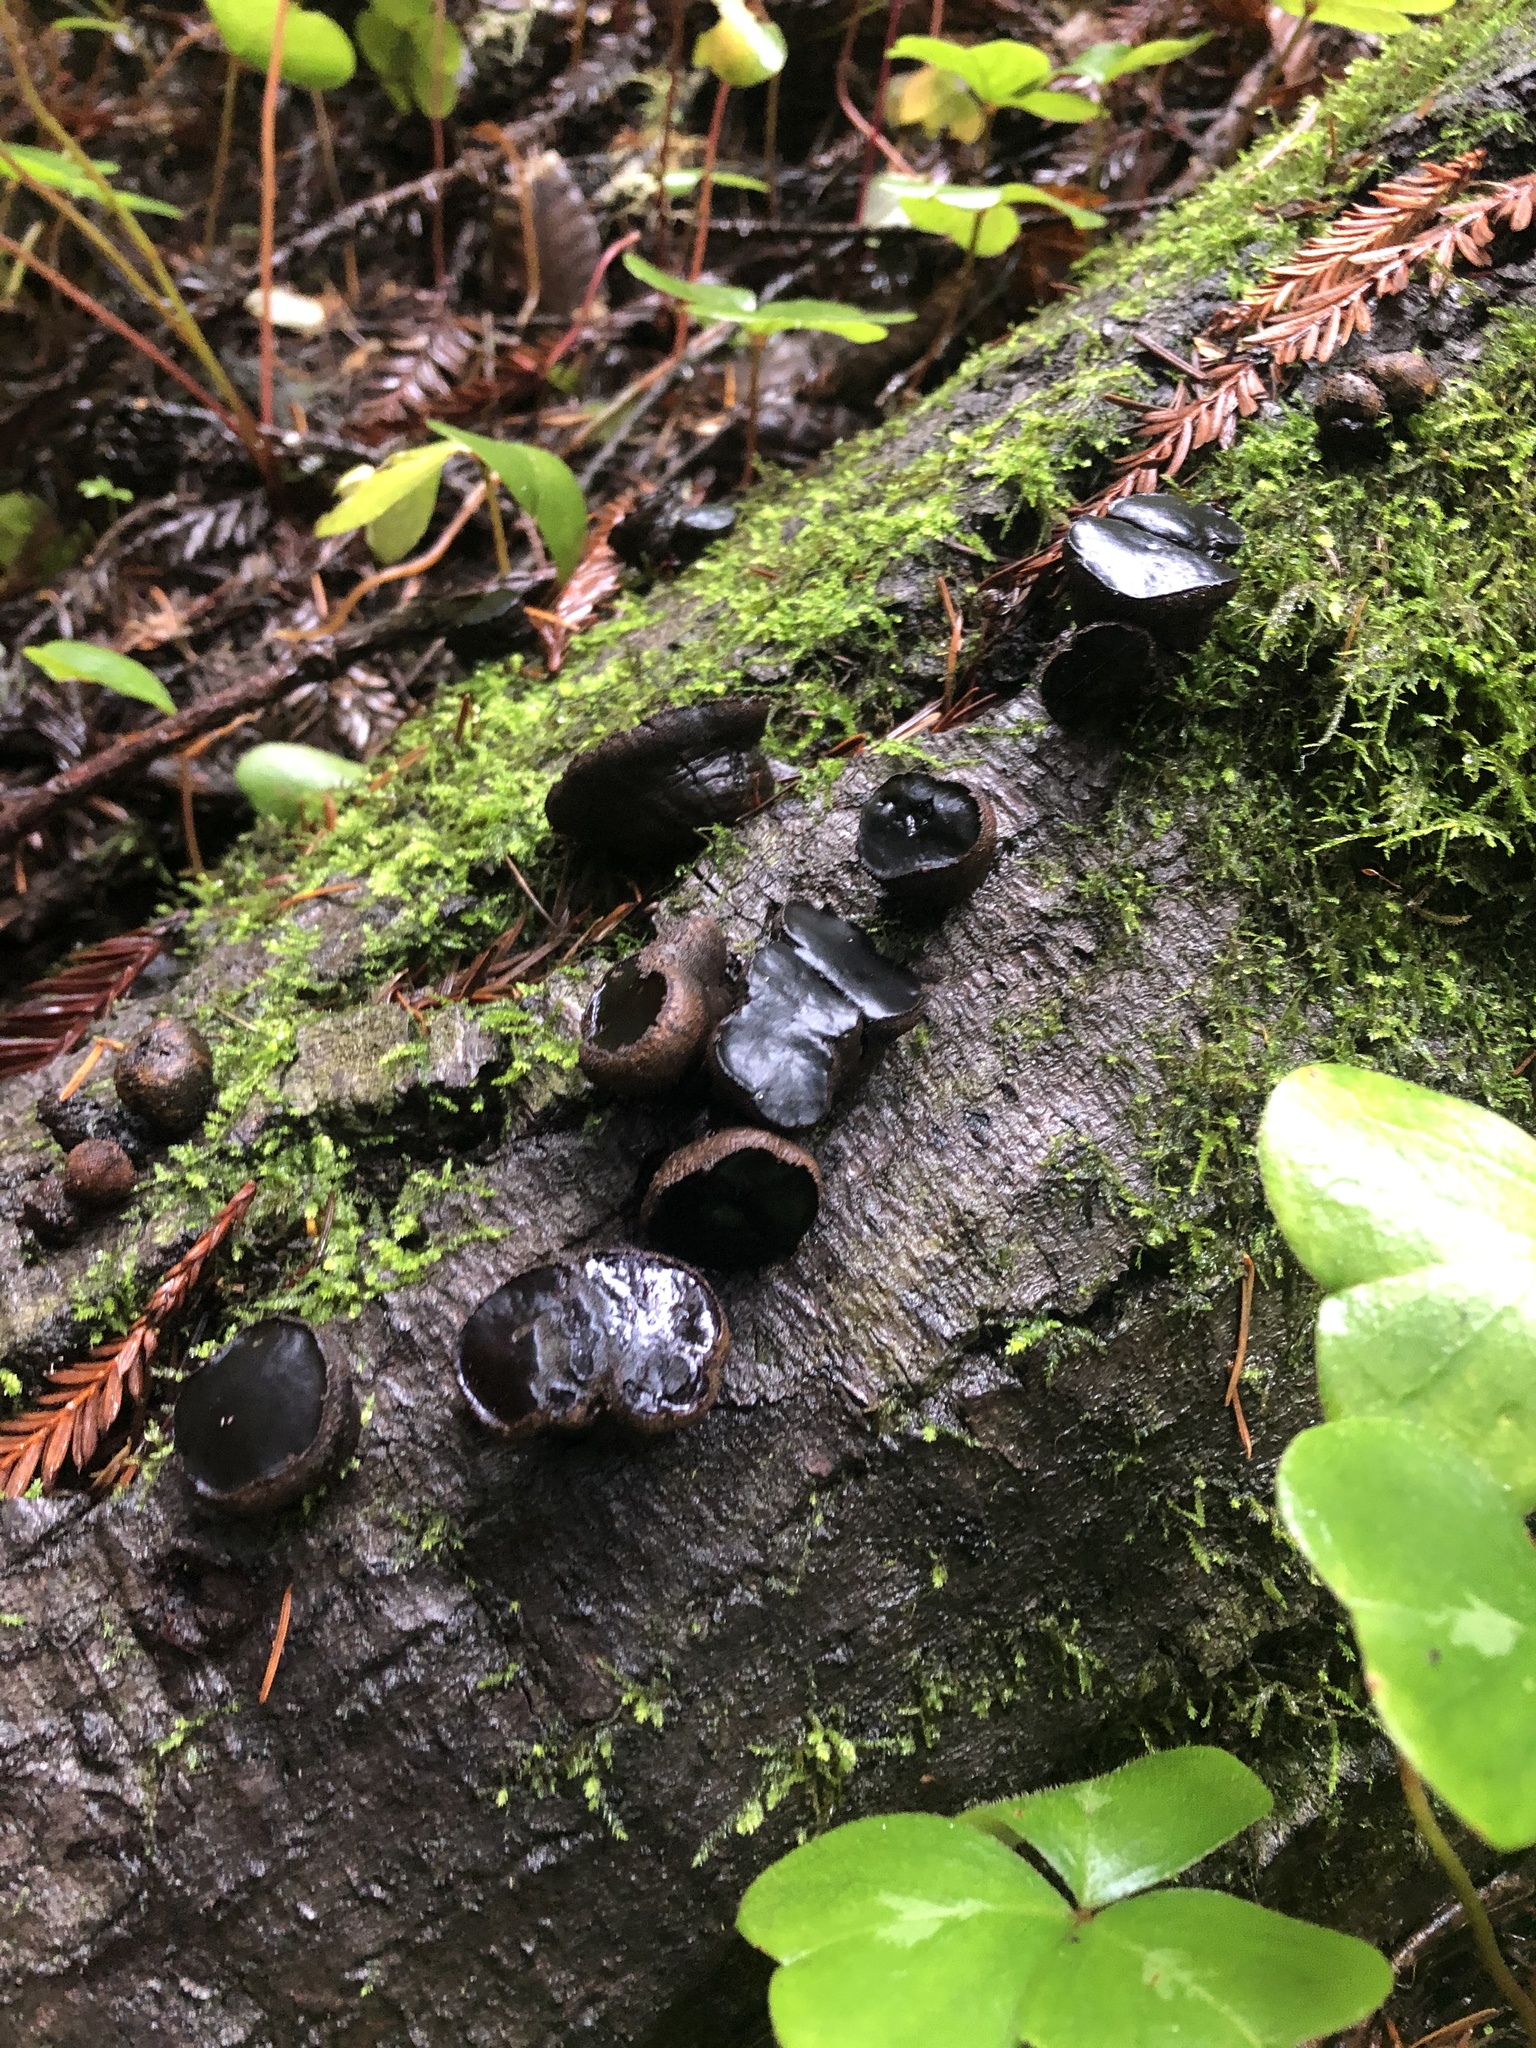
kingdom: Fungi
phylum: Ascomycota
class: Leotiomycetes
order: Phacidiales
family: Phacidiaceae
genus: Bulgaria
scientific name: Bulgaria inquinans
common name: Black bulgar
